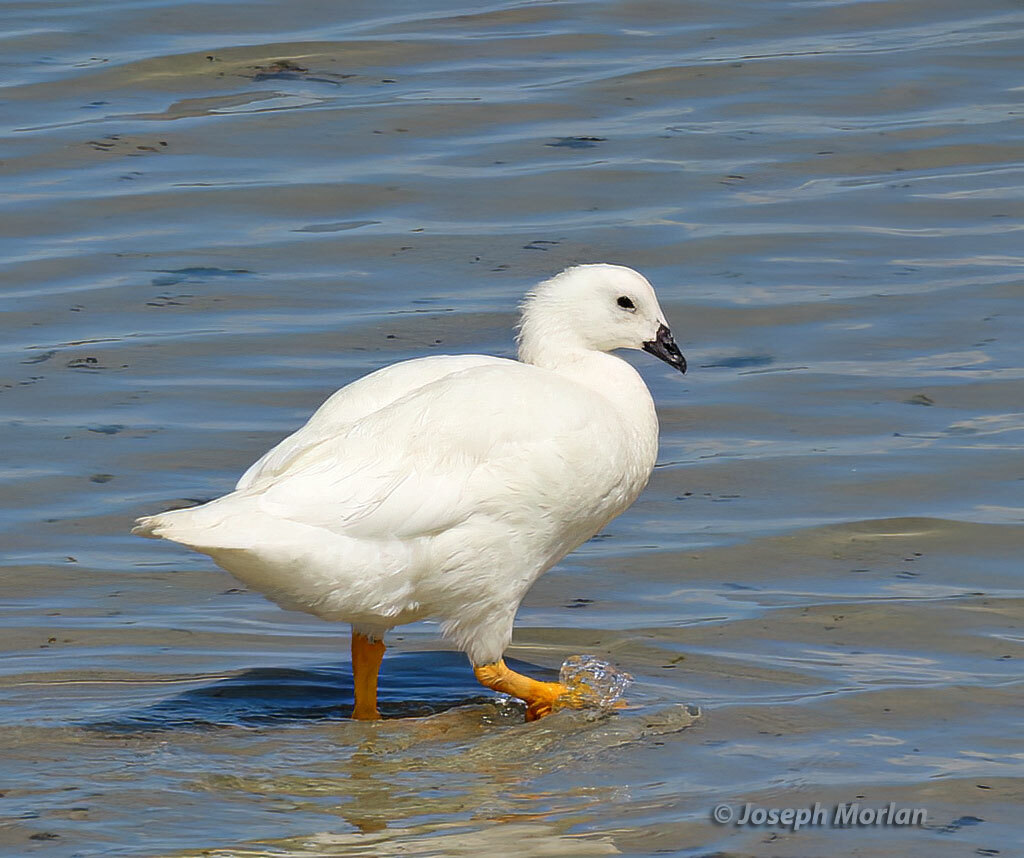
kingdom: Animalia
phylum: Chordata
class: Aves
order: Anseriformes
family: Anatidae
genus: Chloephaga
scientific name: Chloephaga hybrida
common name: Kelp goose
